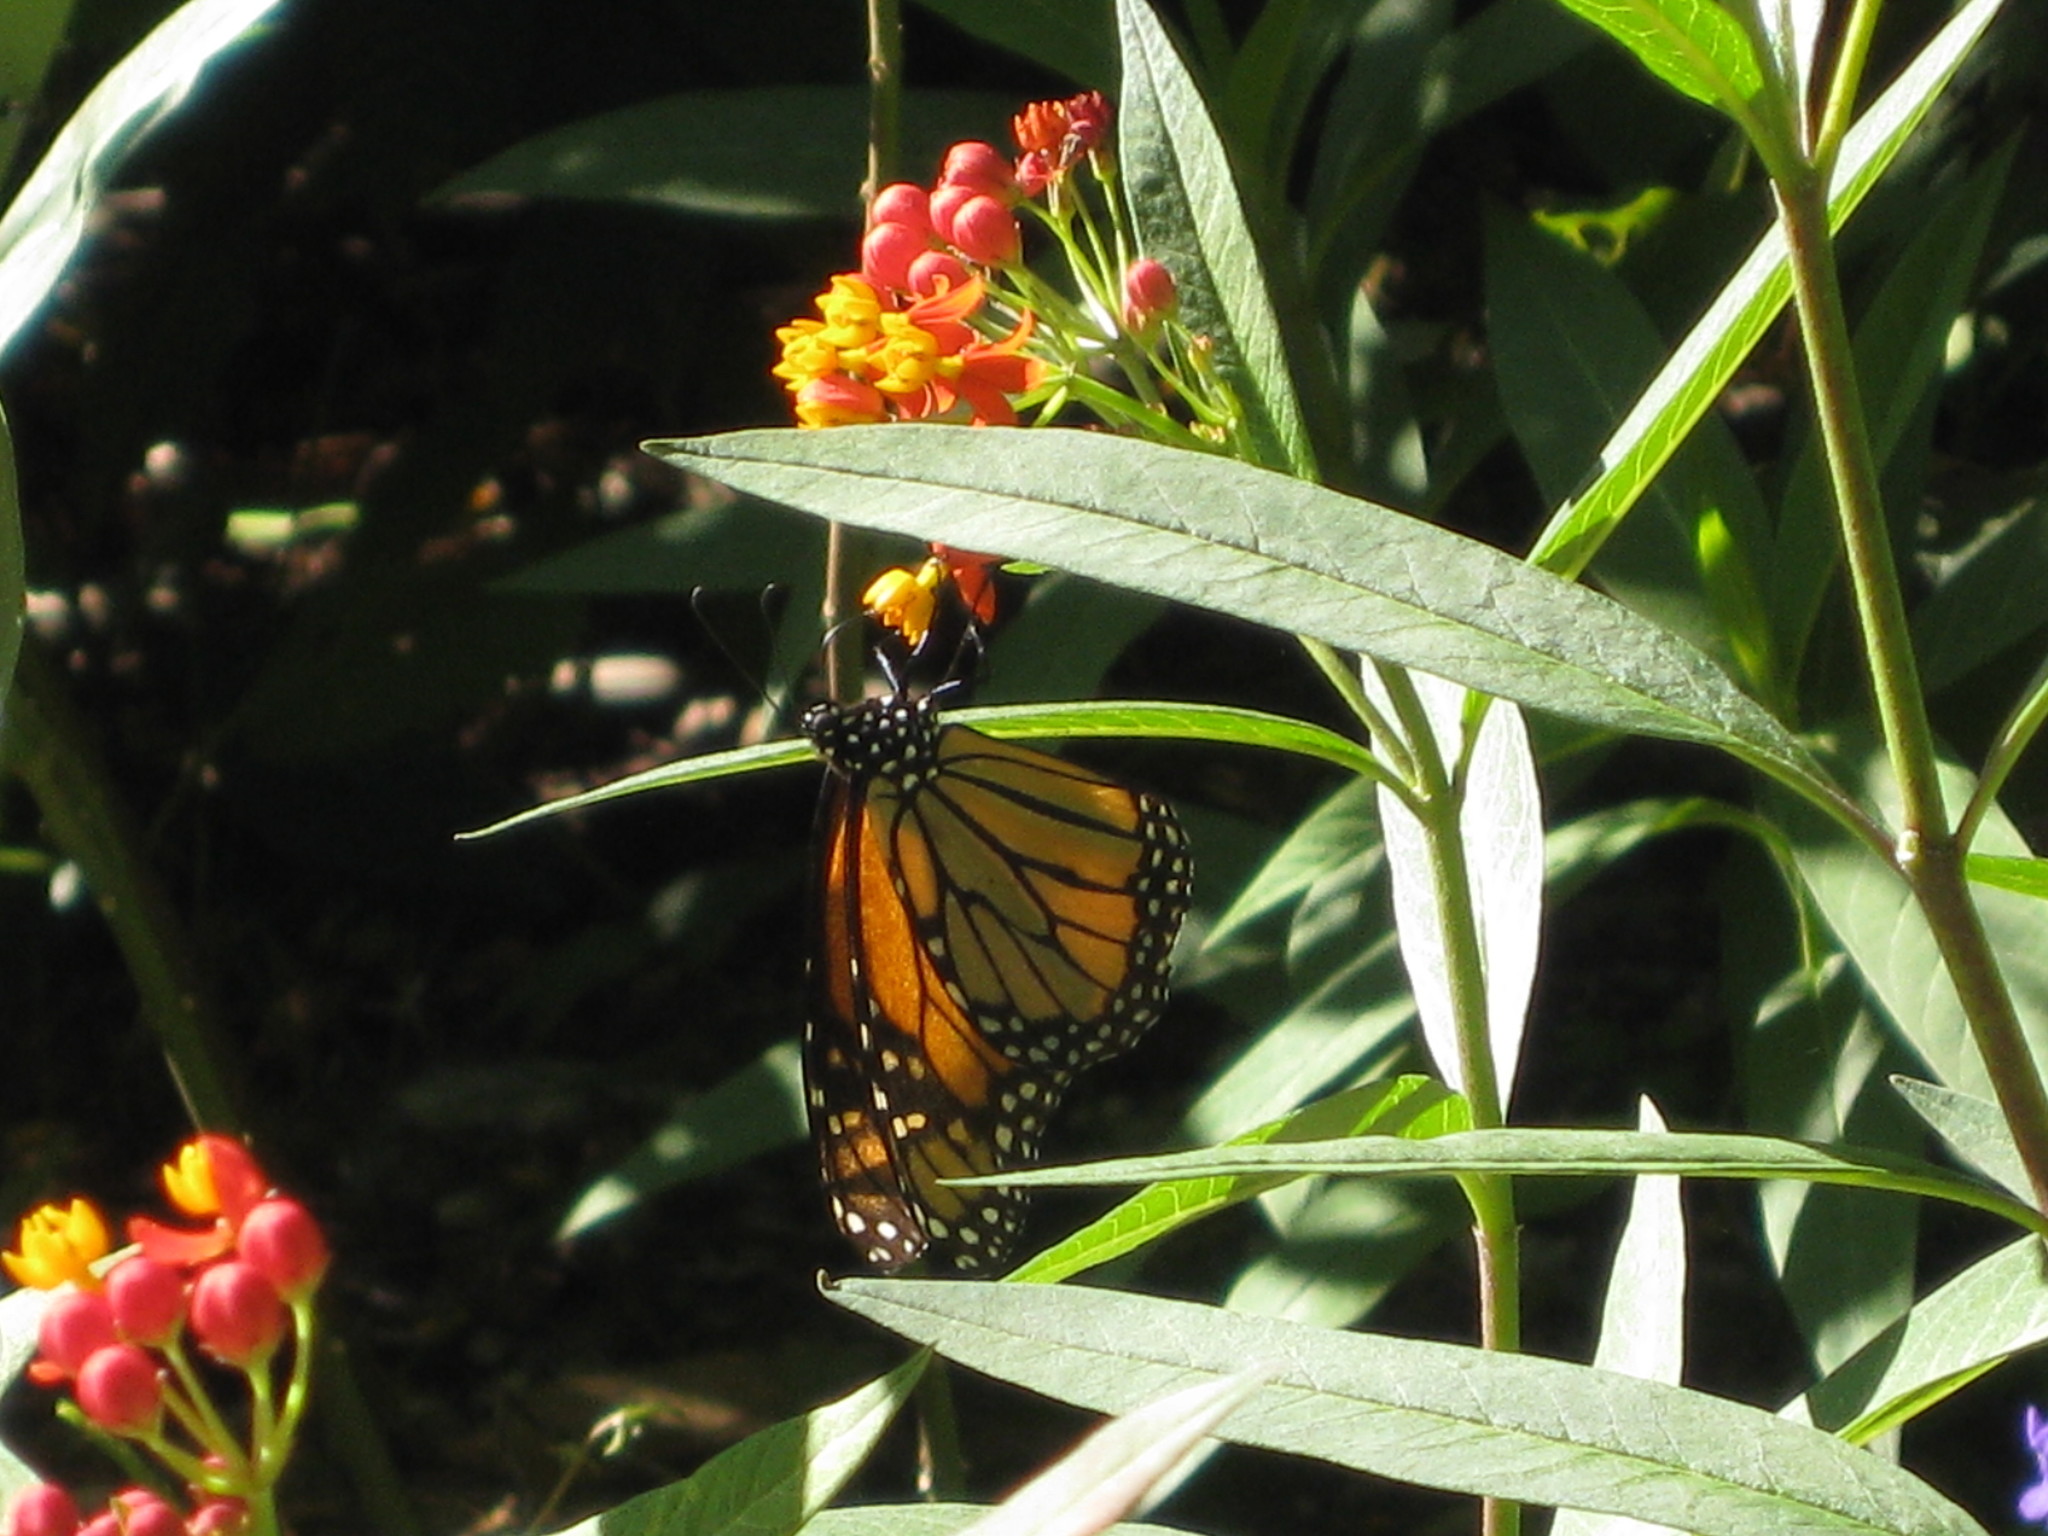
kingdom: Animalia
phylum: Arthropoda
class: Insecta
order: Lepidoptera
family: Nymphalidae
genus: Danaus
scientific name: Danaus plexippus
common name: Monarch
